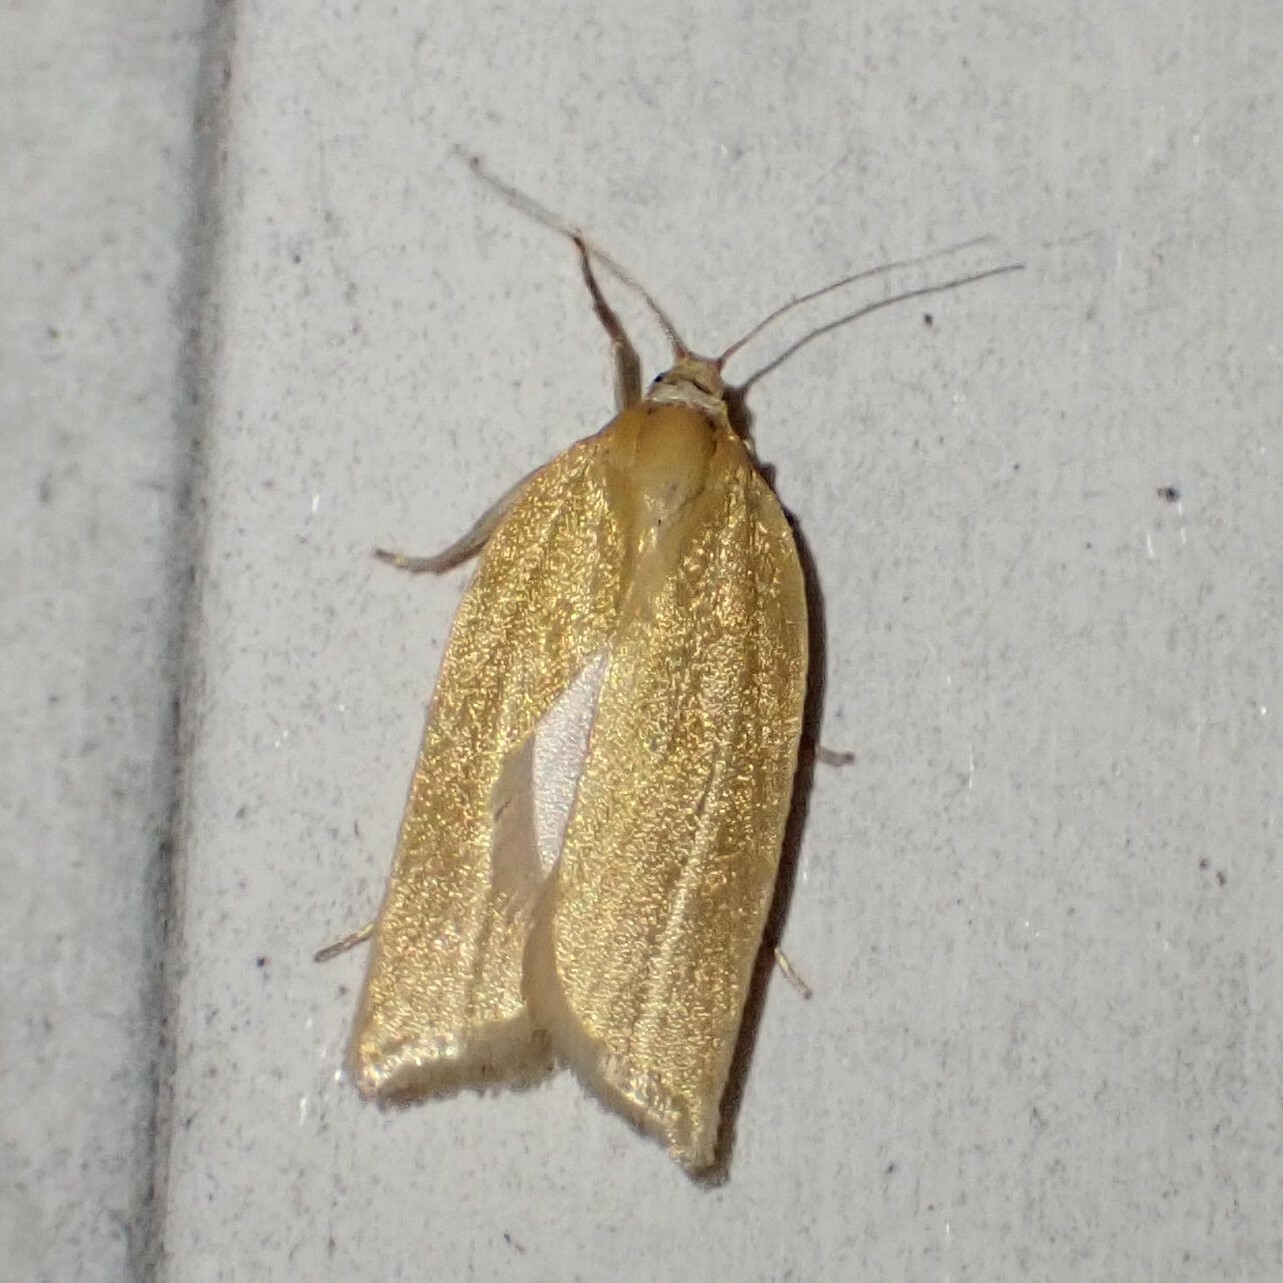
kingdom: Animalia
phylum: Arthropoda
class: Insecta
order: Lepidoptera
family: Tortricidae
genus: Clepsis
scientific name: Clepsis clemensiana
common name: Clemens' clepsis moth
